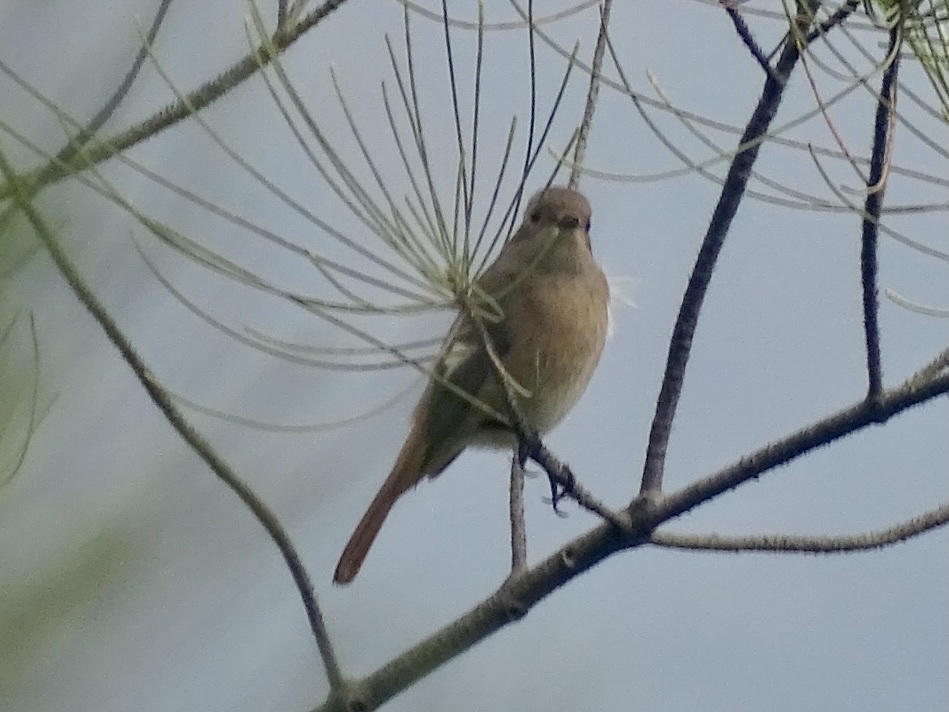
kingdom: Animalia
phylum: Chordata
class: Aves
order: Passeriformes
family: Muscicapidae
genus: Phoenicurus
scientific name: Phoenicurus auroreus
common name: Daurian redstart
